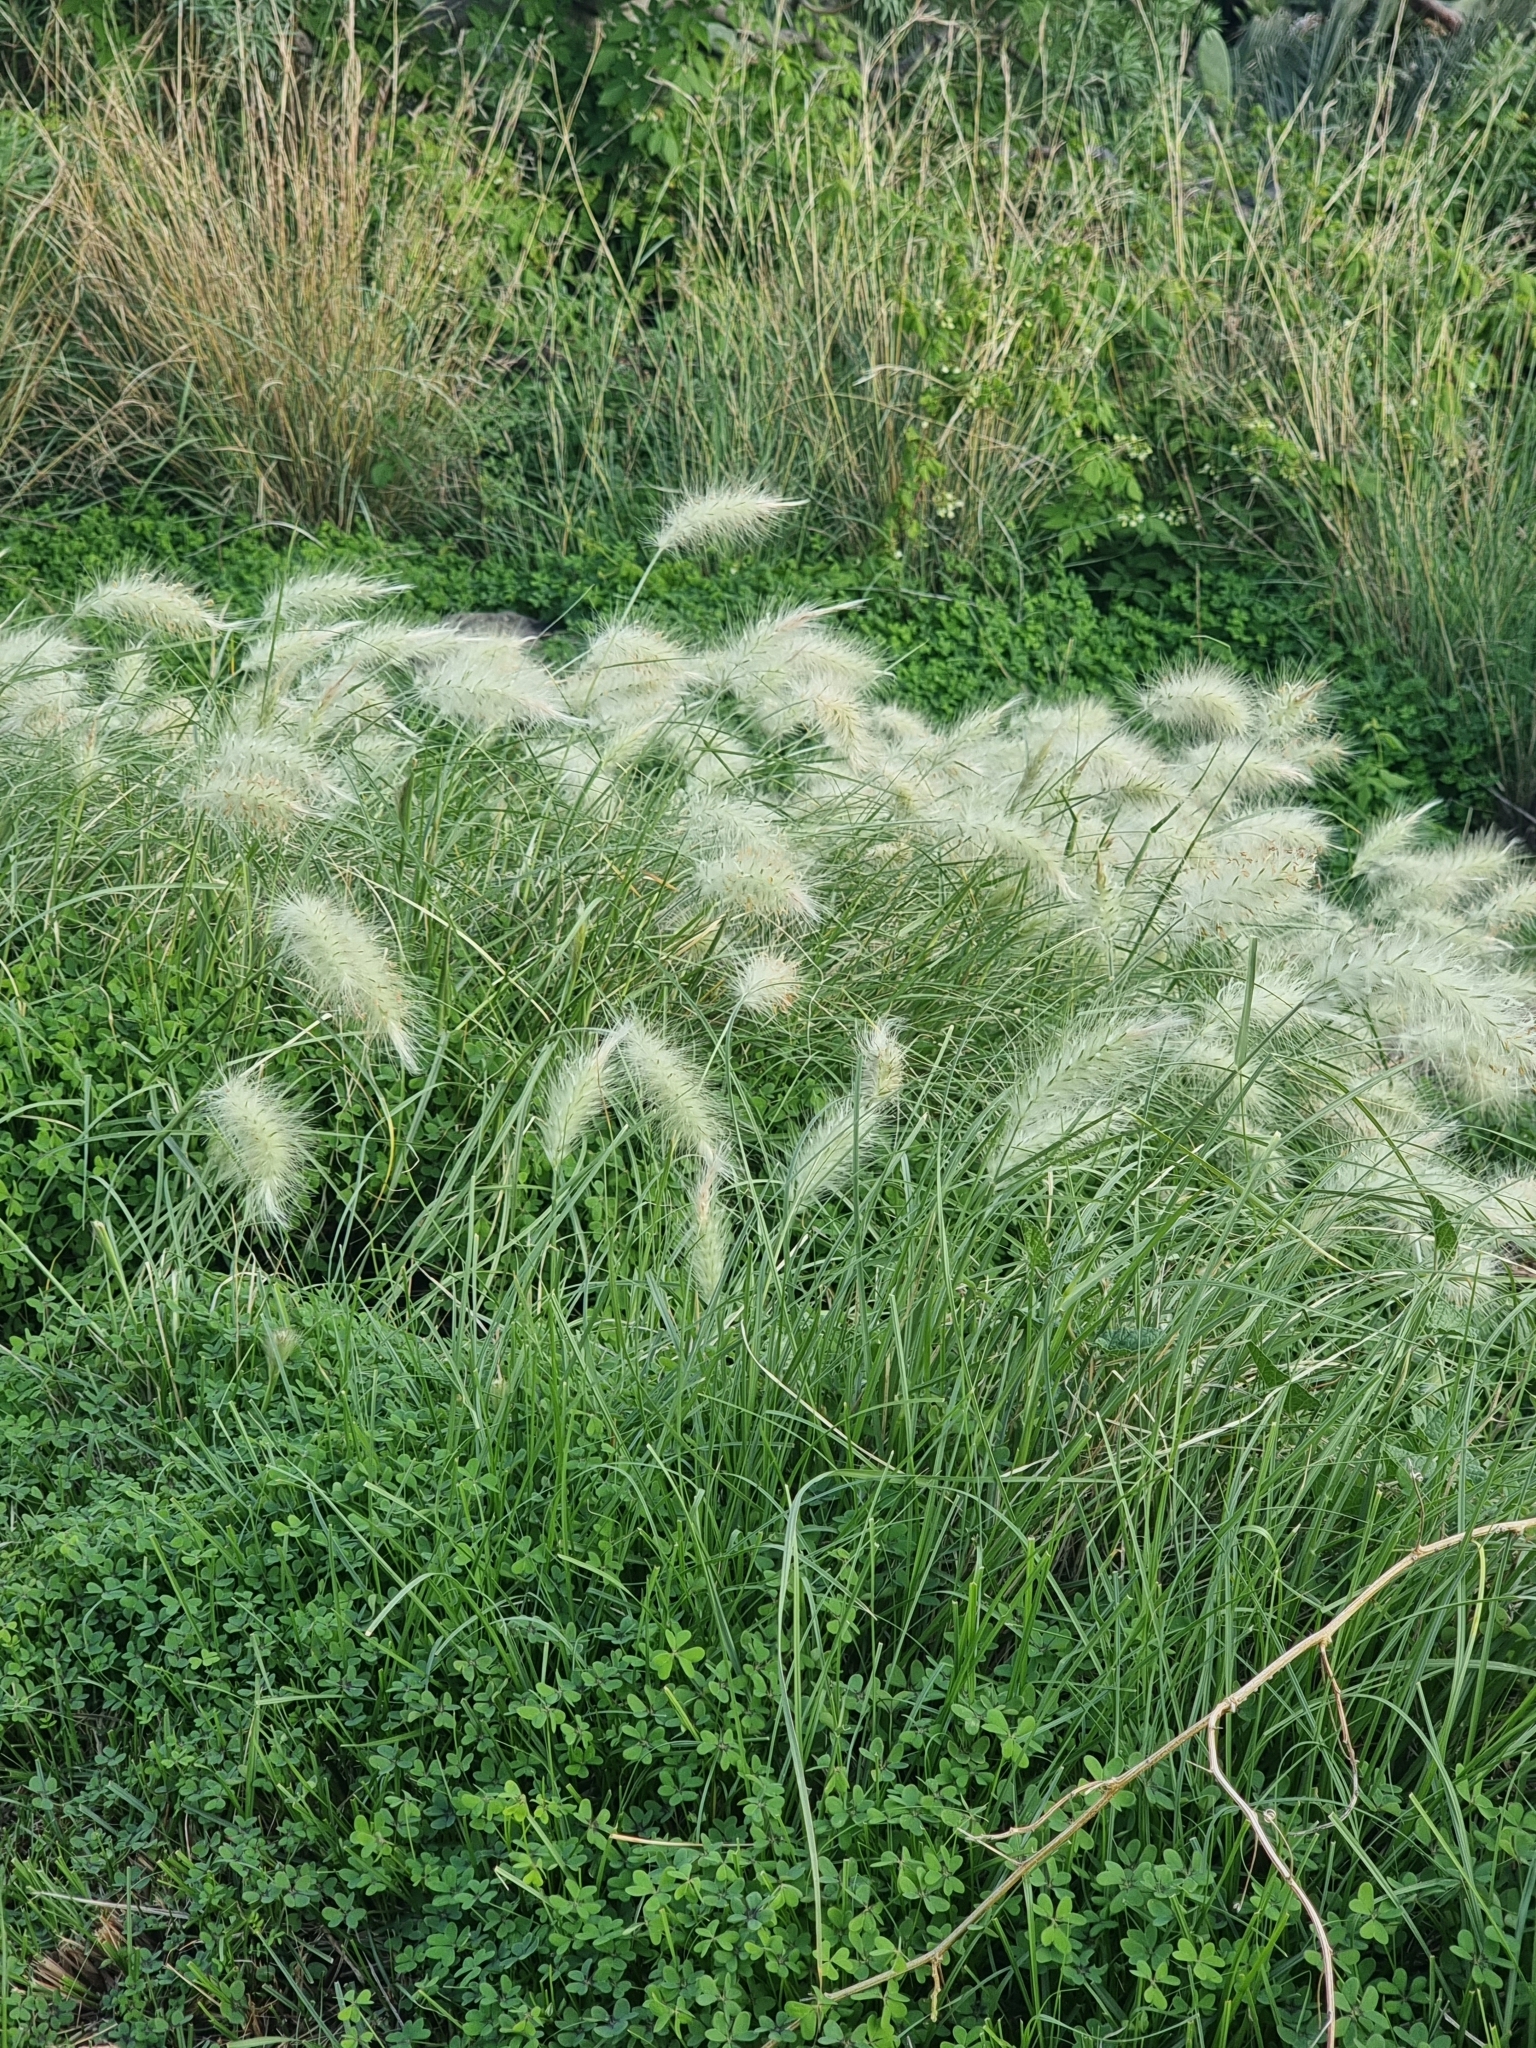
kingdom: Plantae
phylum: Tracheophyta
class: Liliopsida
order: Poales
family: Poaceae
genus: Cenchrus
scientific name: Cenchrus longisetus
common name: Feathertop
